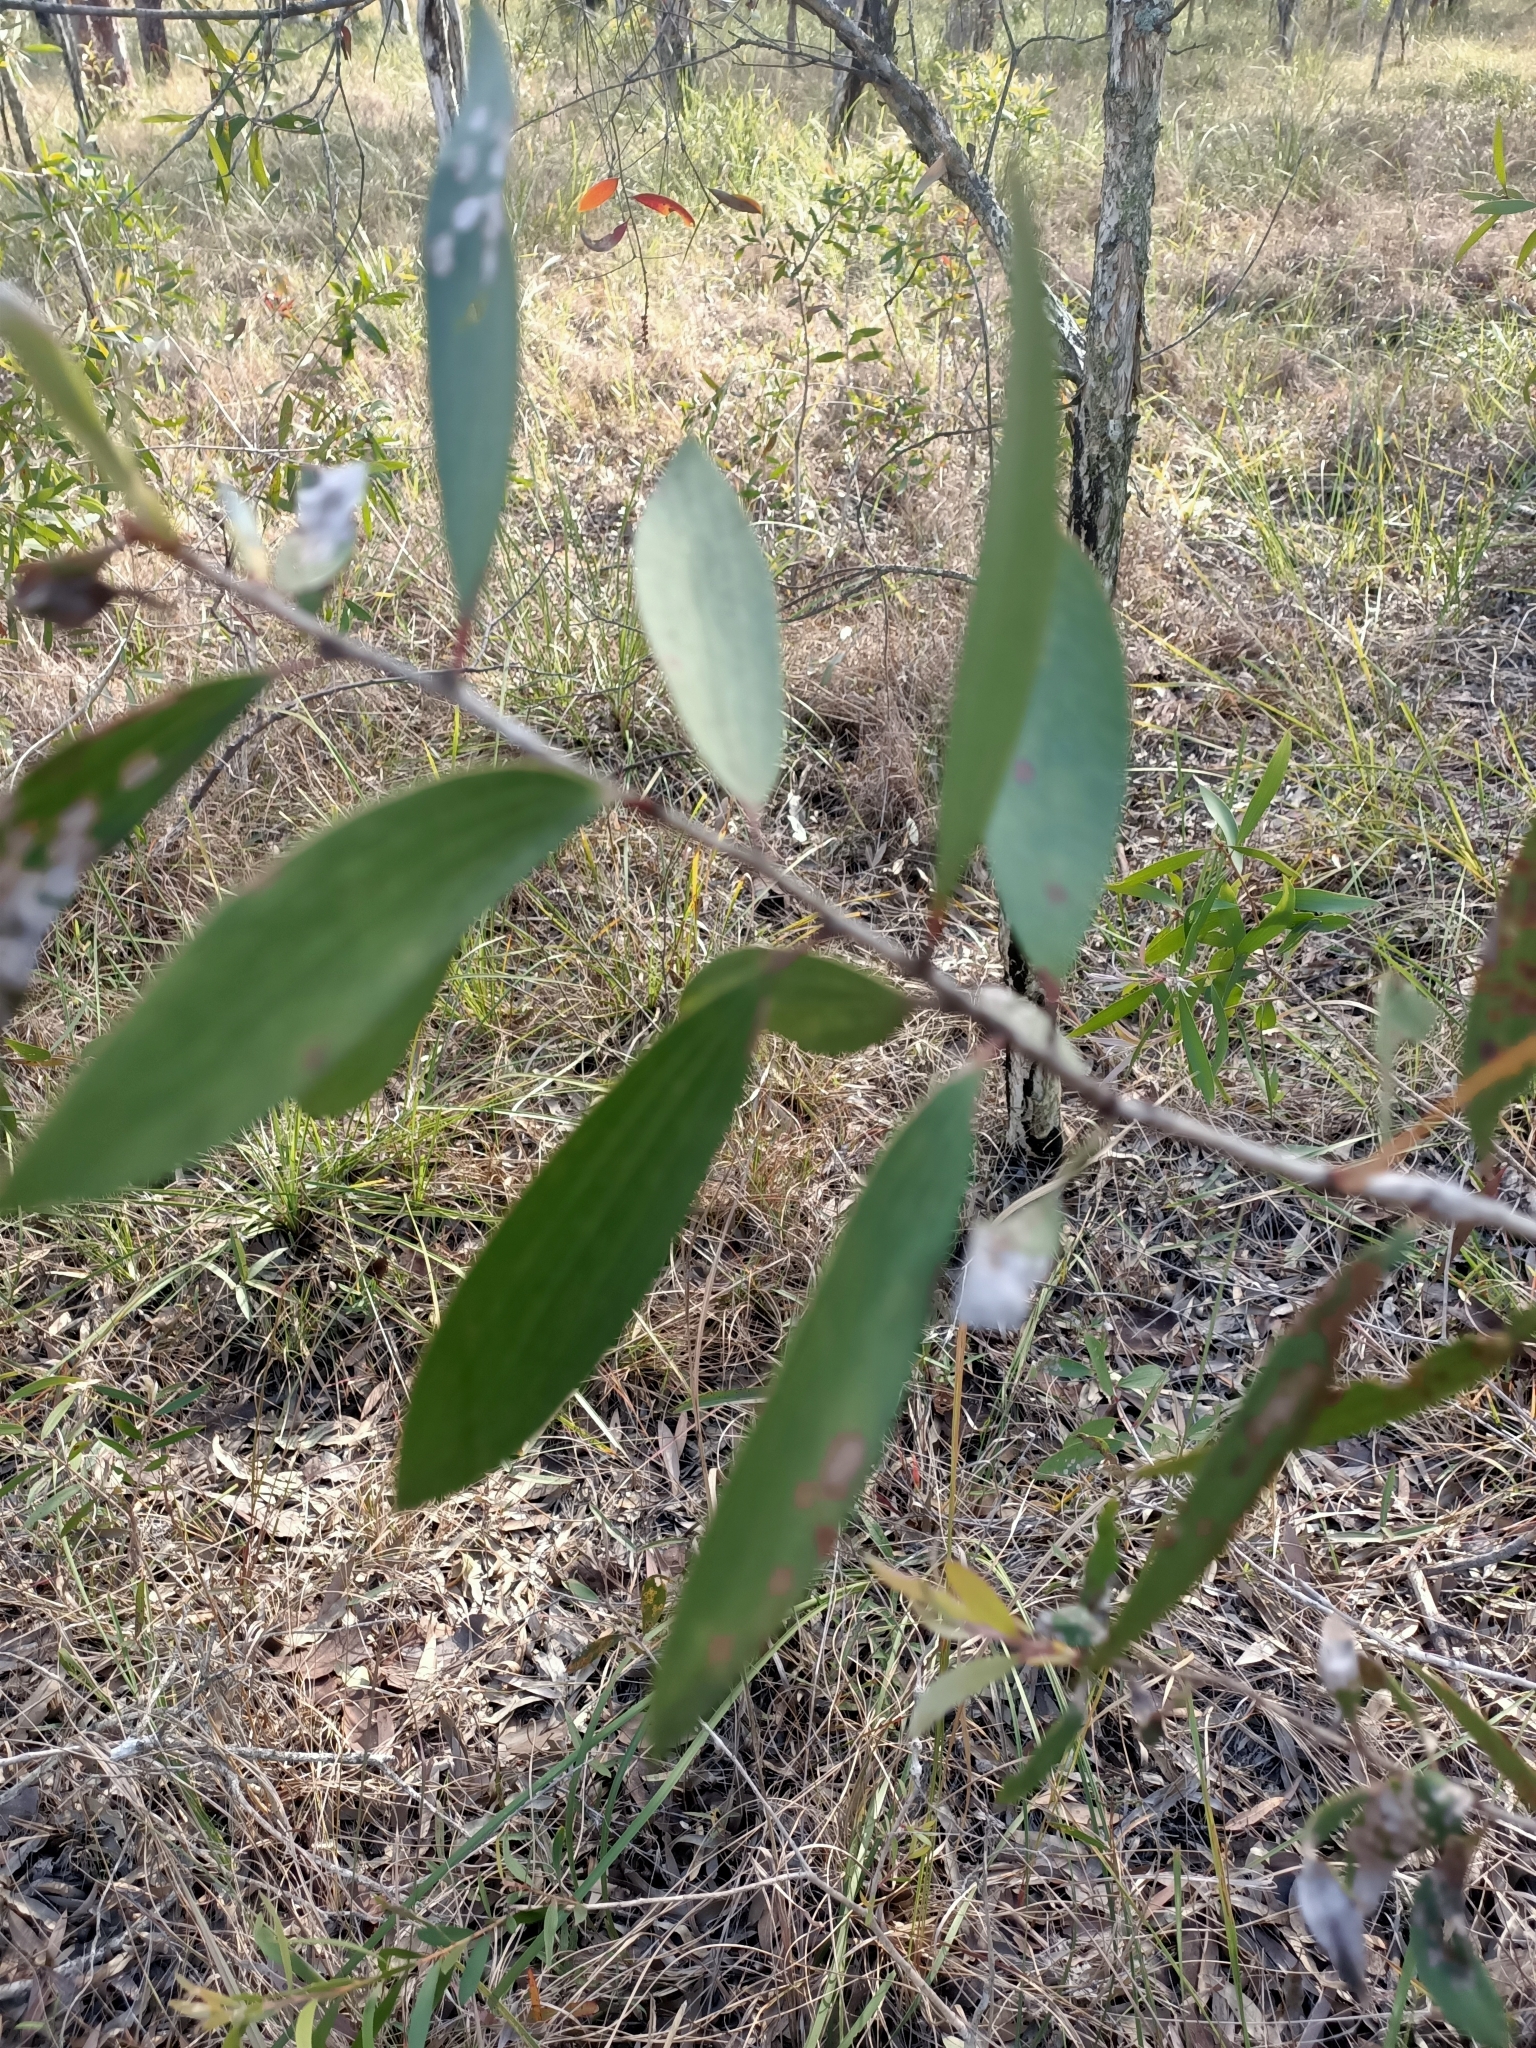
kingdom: Plantae
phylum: Tracheophyta
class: Magnoliopsida
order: Myrtales
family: Myrtaceae
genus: Melaleuca
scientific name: Melaleuca quinquenervia
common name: Punktree
